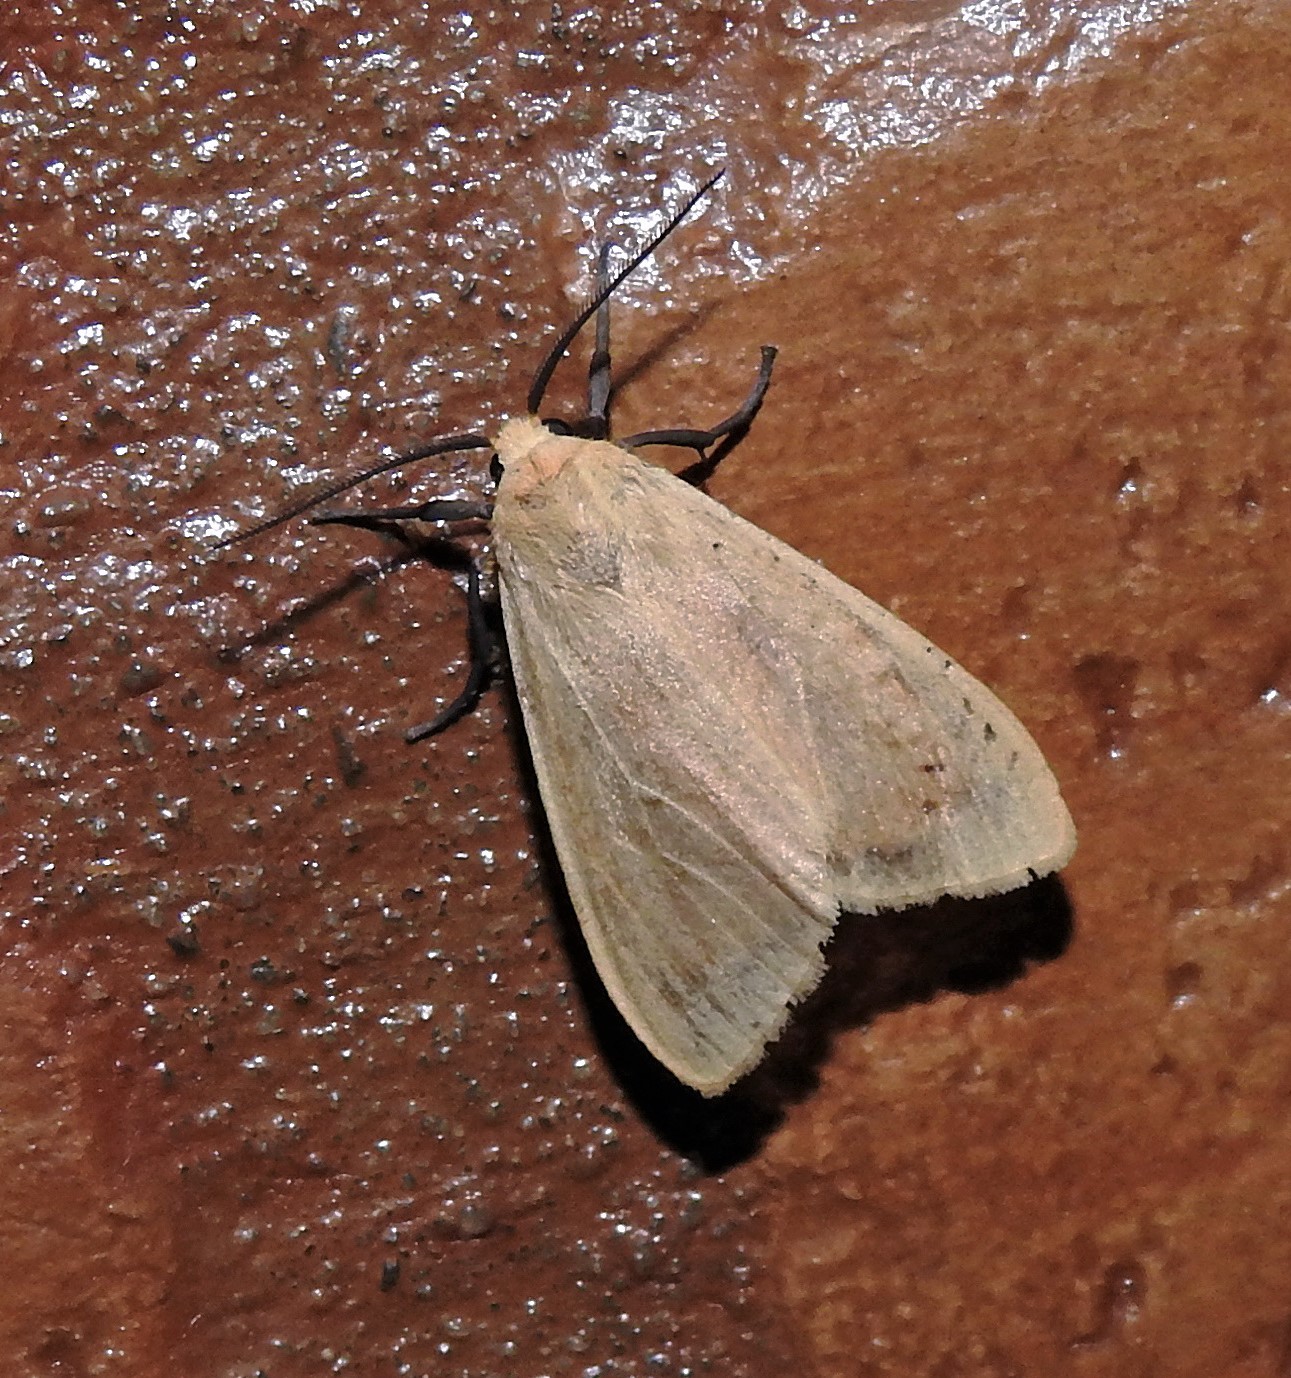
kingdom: Animalia
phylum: Arthropoda
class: Insecta
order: Lepidoptera
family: Erebidae
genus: Pareuchaetes
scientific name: Pareuchaetes aurata
